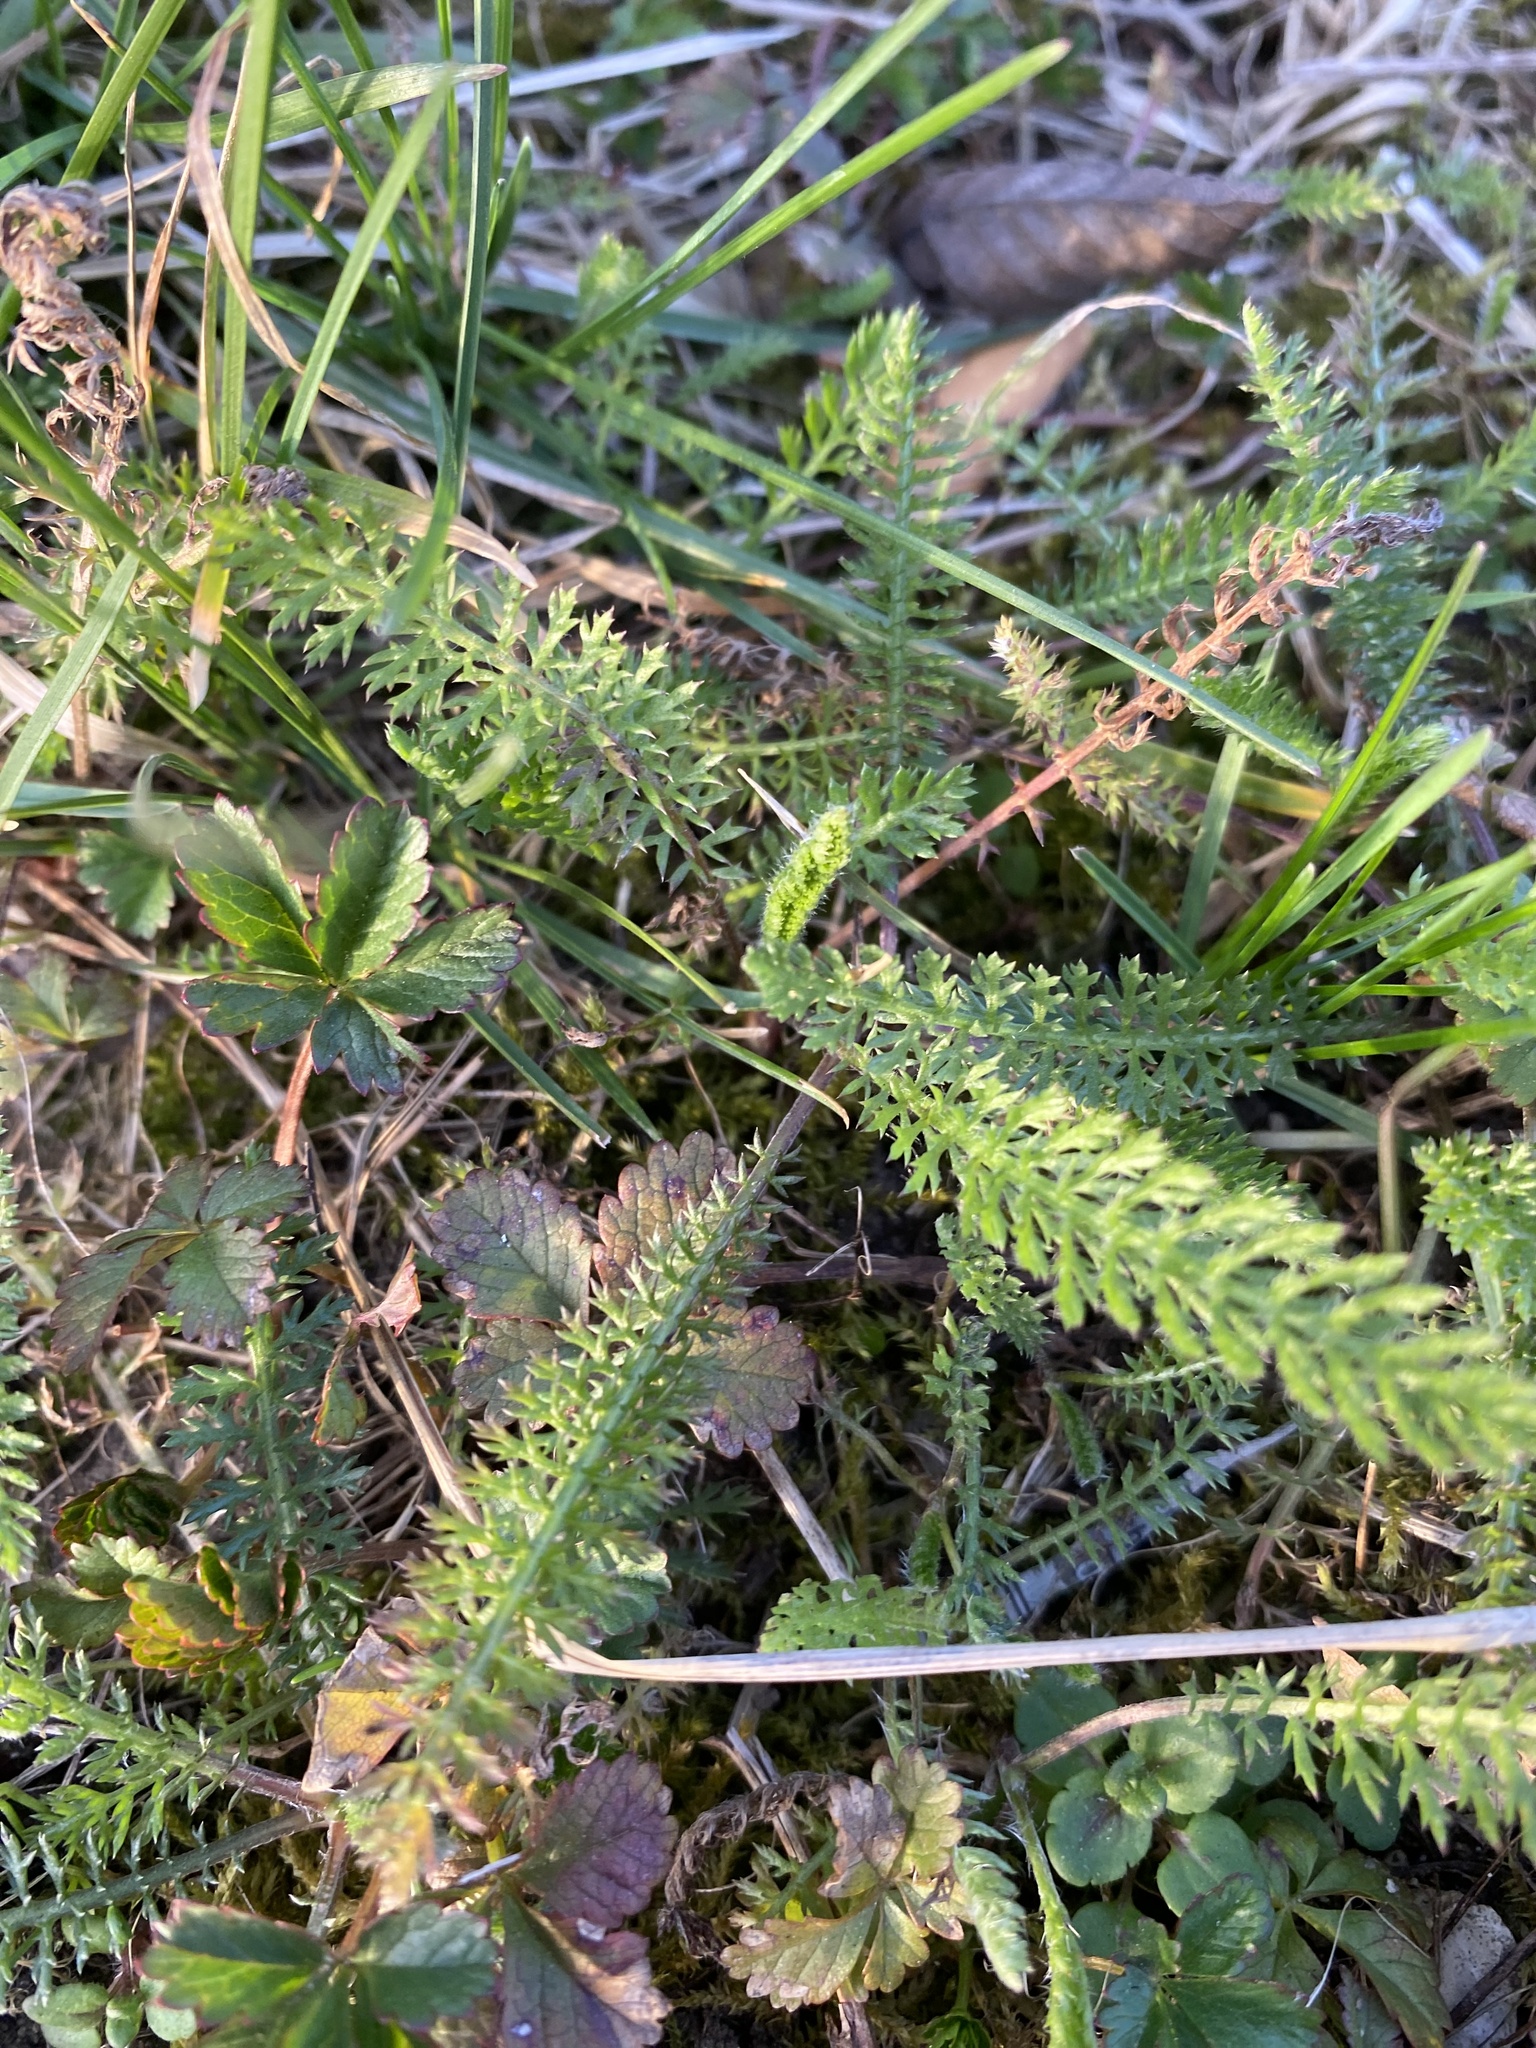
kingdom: Plantae
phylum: Tracheophyta
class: Magnoliopsida
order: Asterales
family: Asteraceae
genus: Achillea
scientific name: Achillea millefolium
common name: Yarrow
